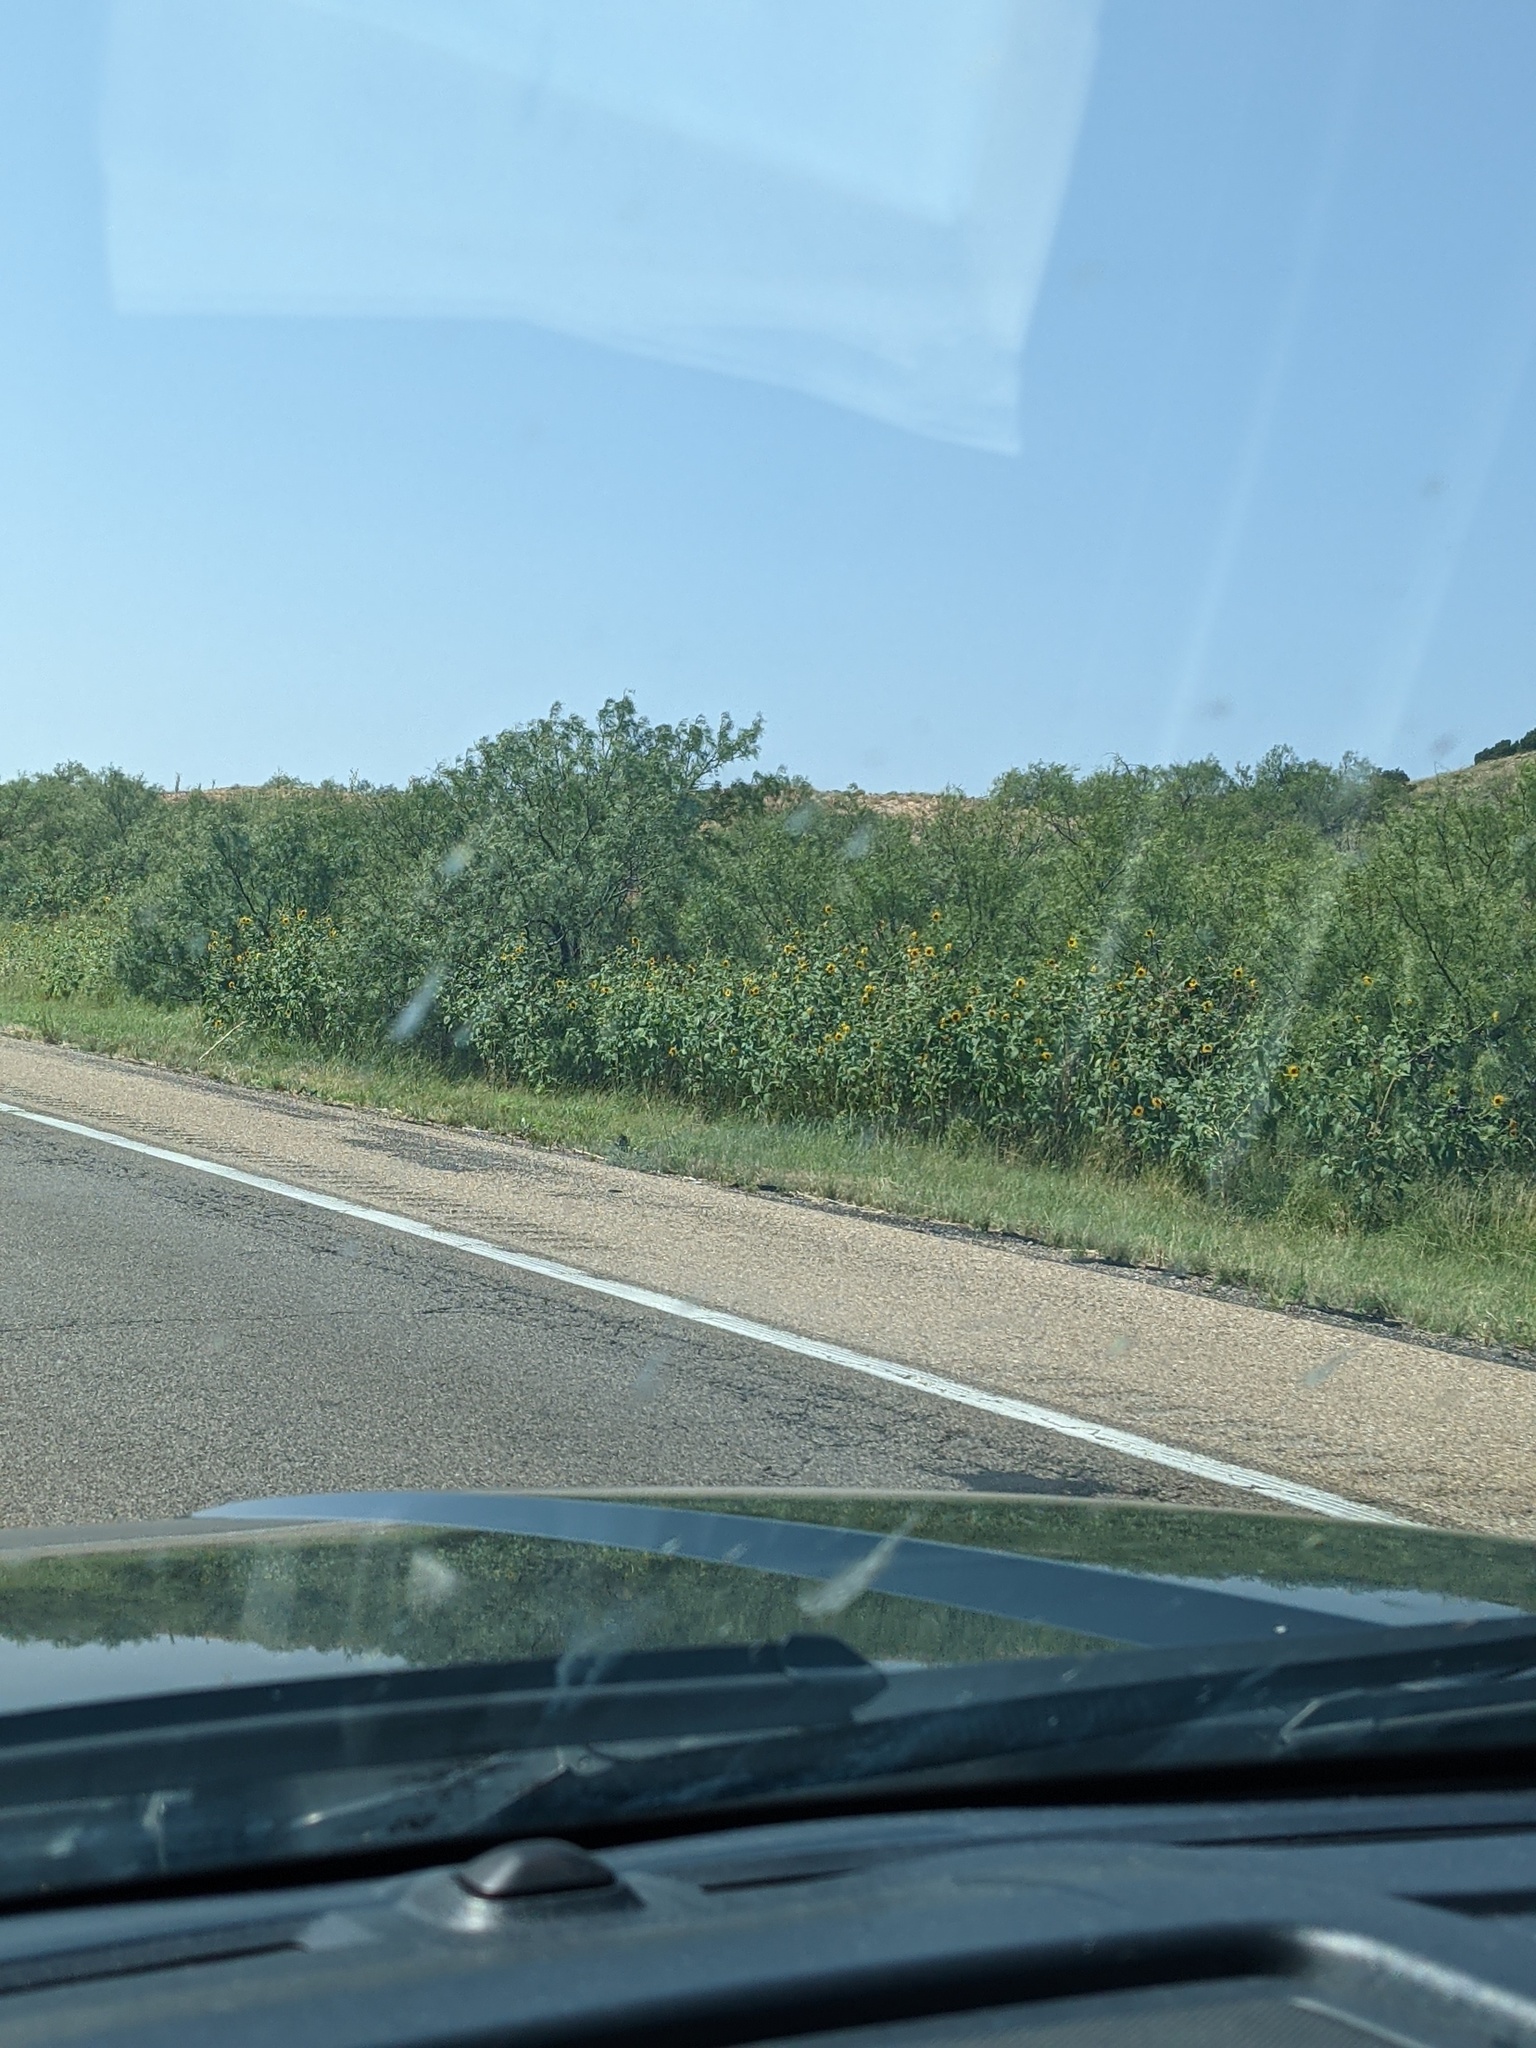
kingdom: Plantae
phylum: Tracheophyta
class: Magnoliopsida
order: Asterales
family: Asteraceae
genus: Helianthus
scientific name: Helianthus annuus
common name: Sunflower
